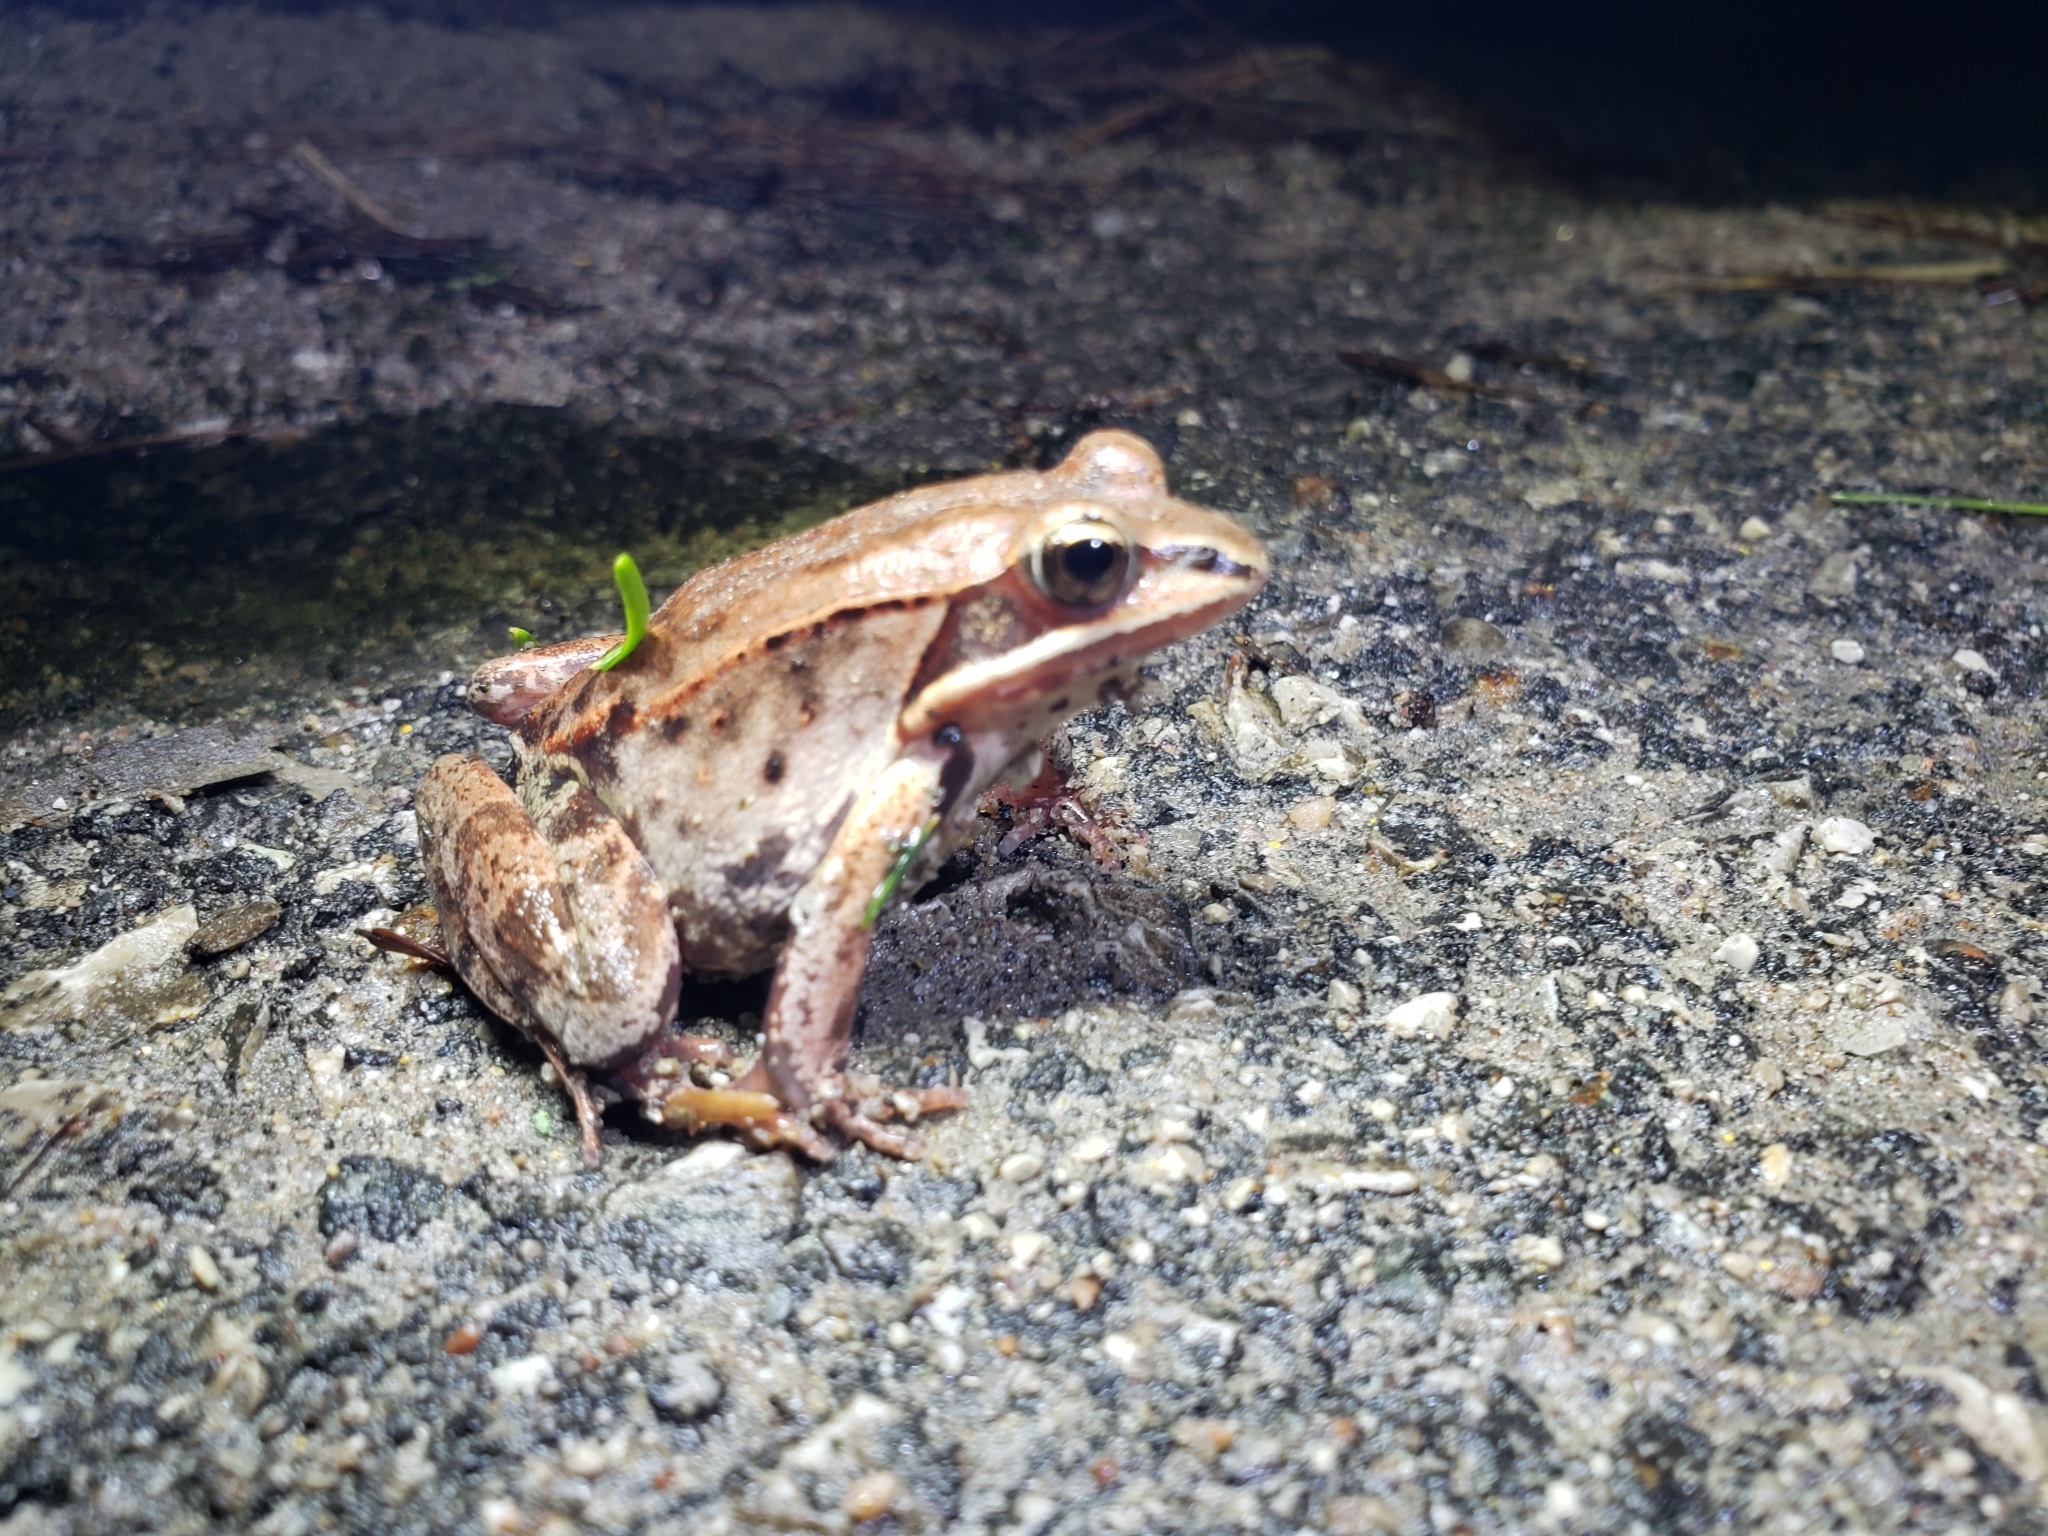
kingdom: Animalia
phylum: Chordata
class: Amphibia
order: Anura
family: Ranidae
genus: Lithobates
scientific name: Lithobates sylvaticus
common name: Wood frog
